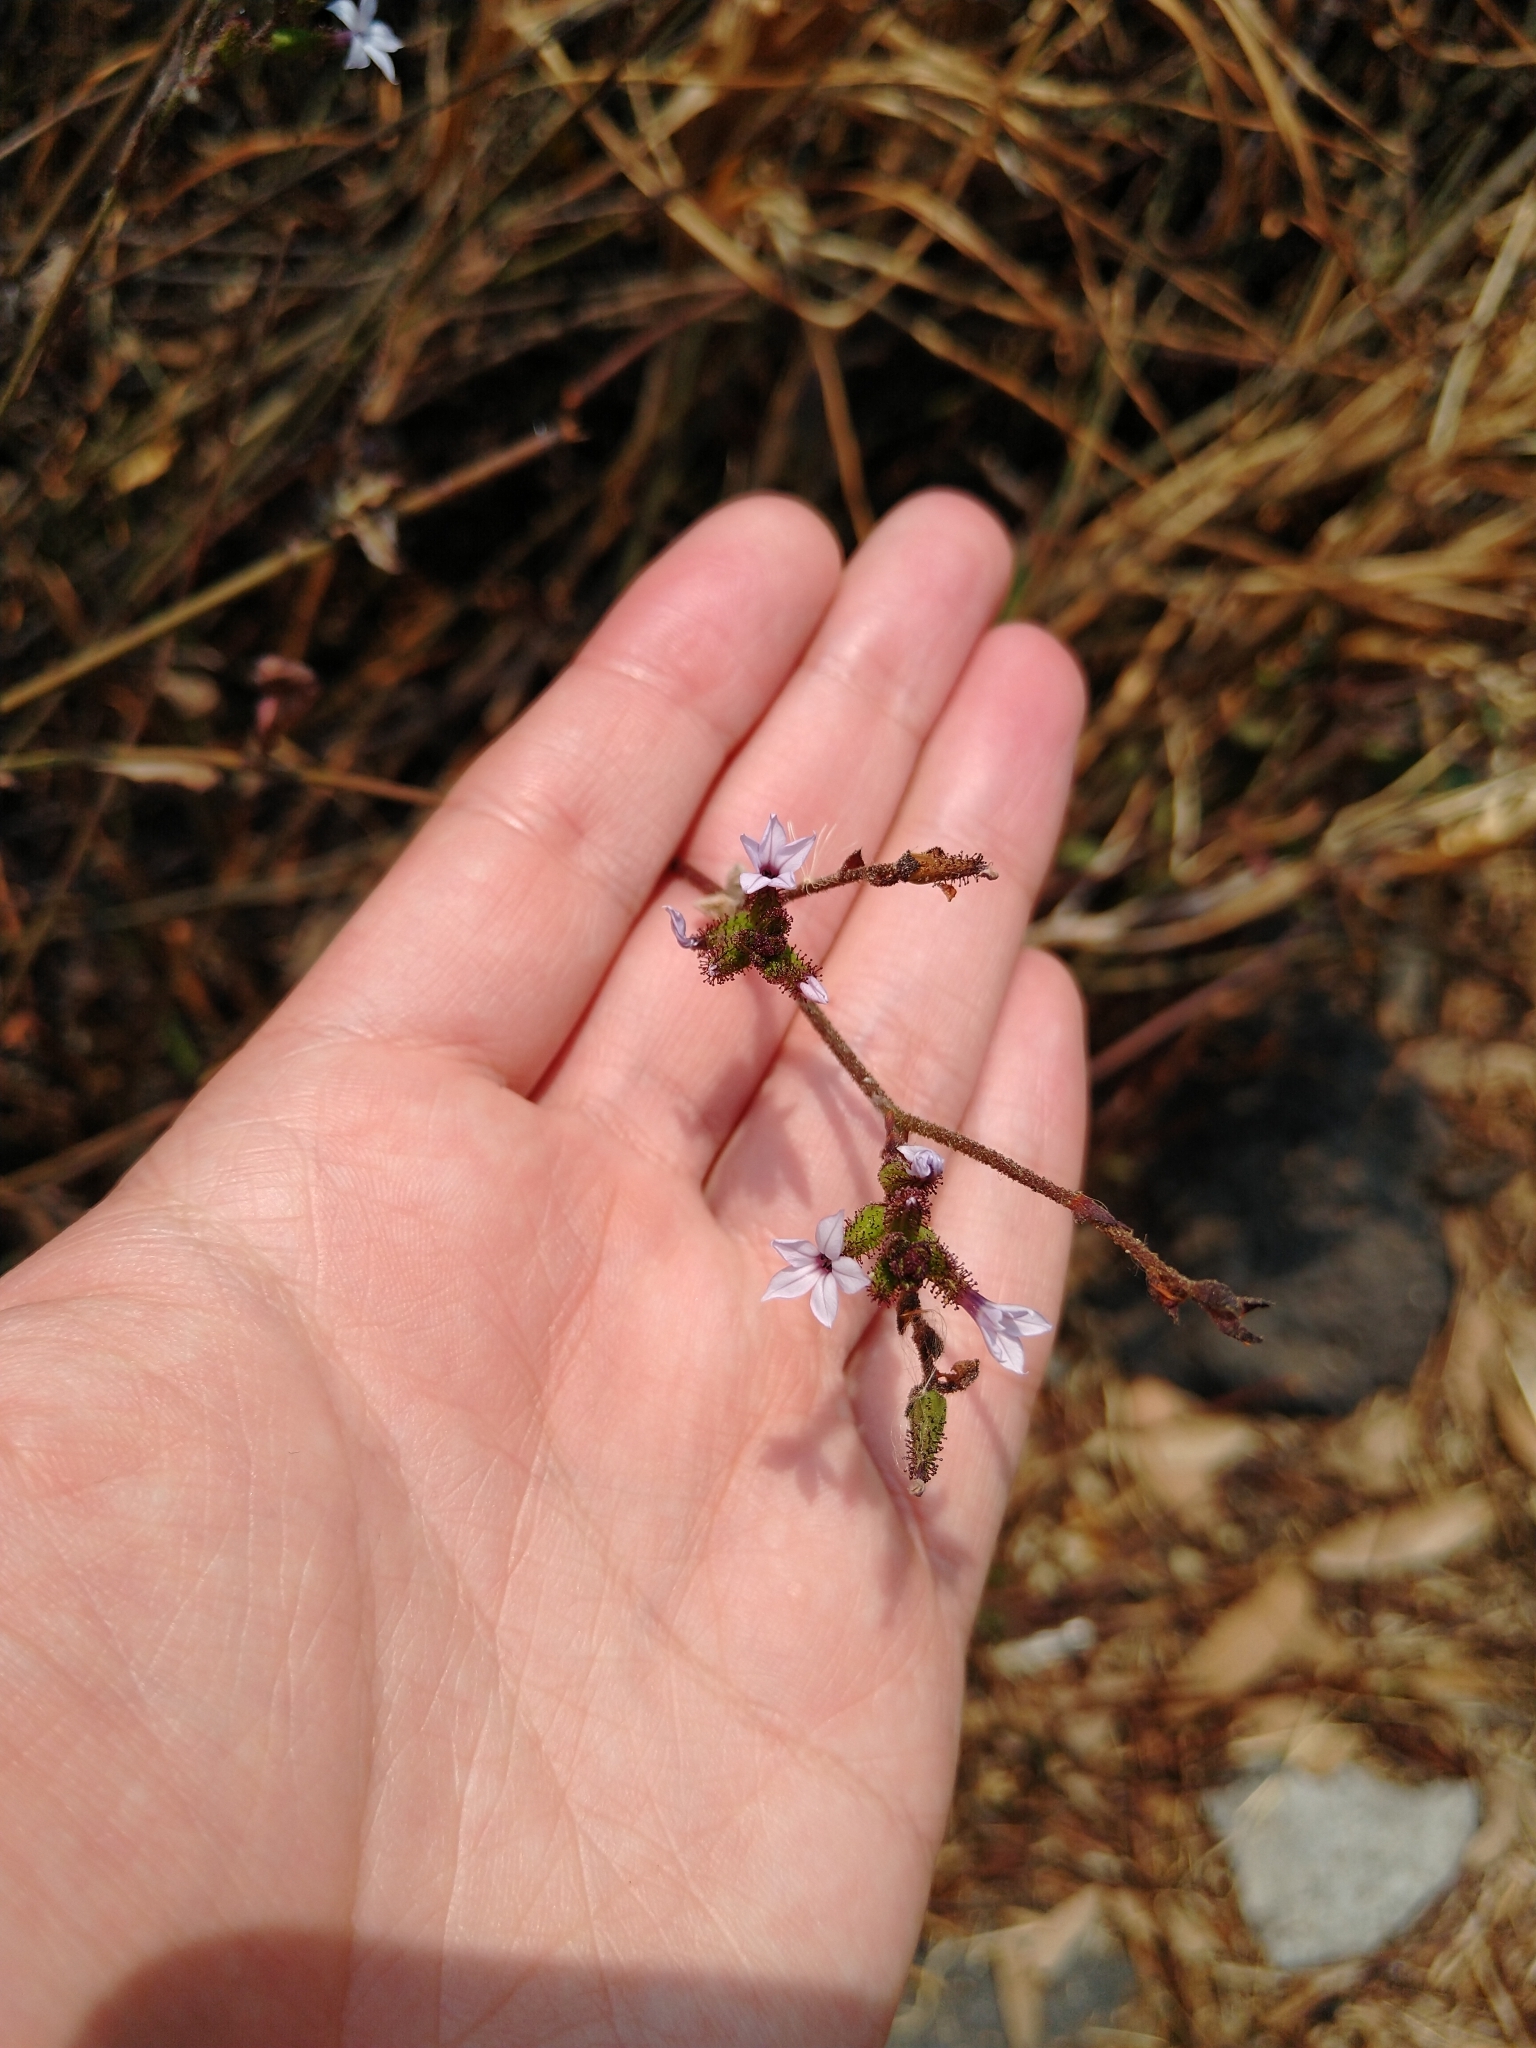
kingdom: Plantae
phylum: Tracheophyta
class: Magnoliopsida
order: Caryophyllales
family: Plumbaginaceae
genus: Plumbago
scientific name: Plumbago pulchella
